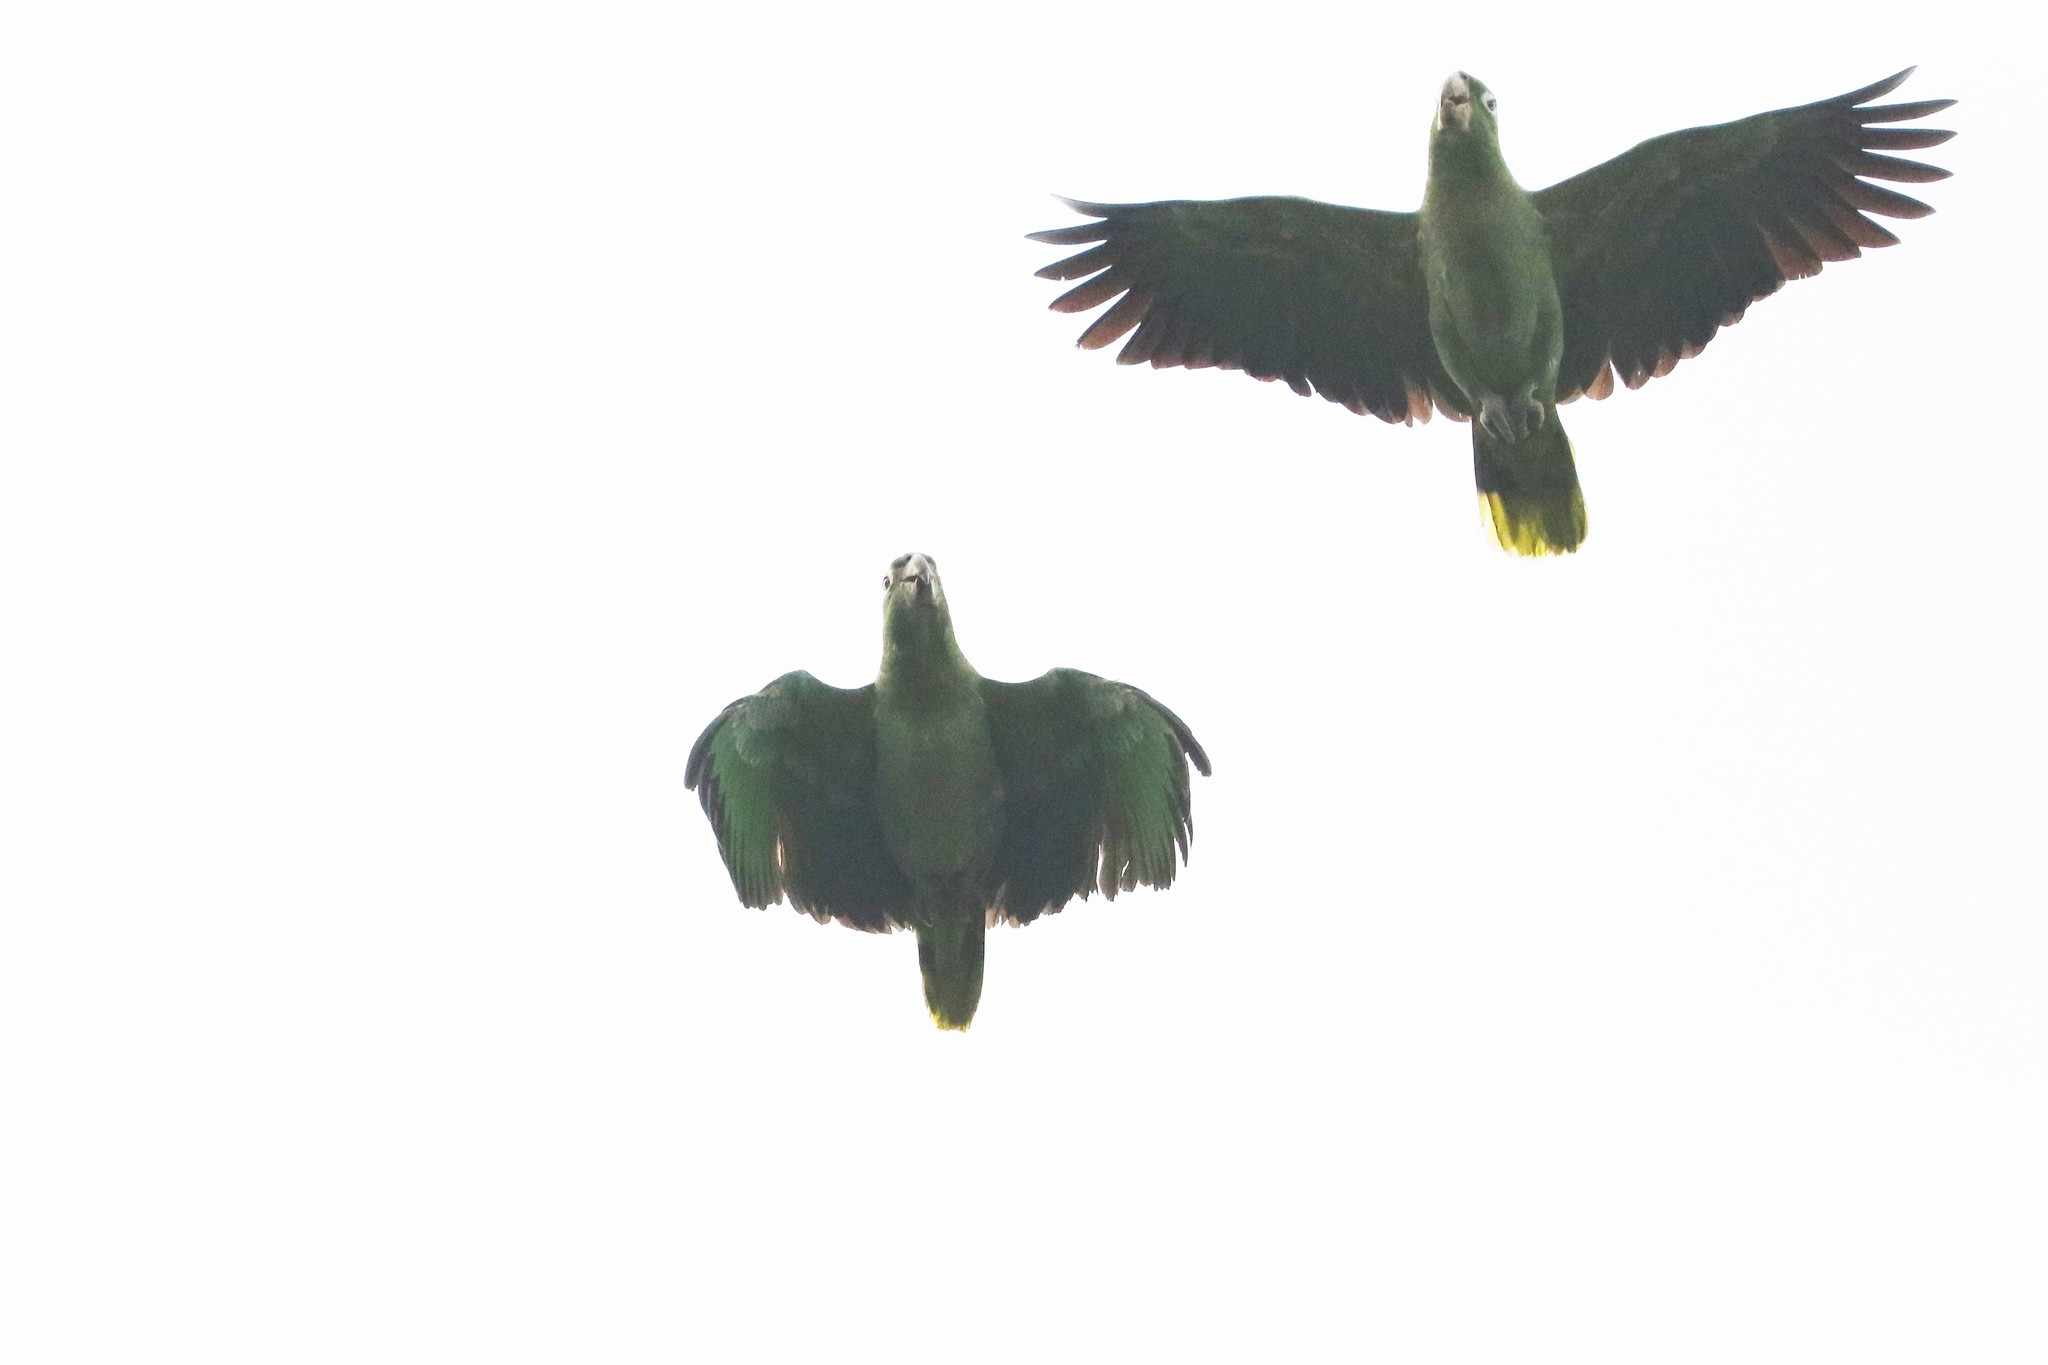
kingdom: Animalia
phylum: Chordata
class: Aves
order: Psittaciformes
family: Psittacidae
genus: Amazona
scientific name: Amazona farinosa
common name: Mealy parrot
